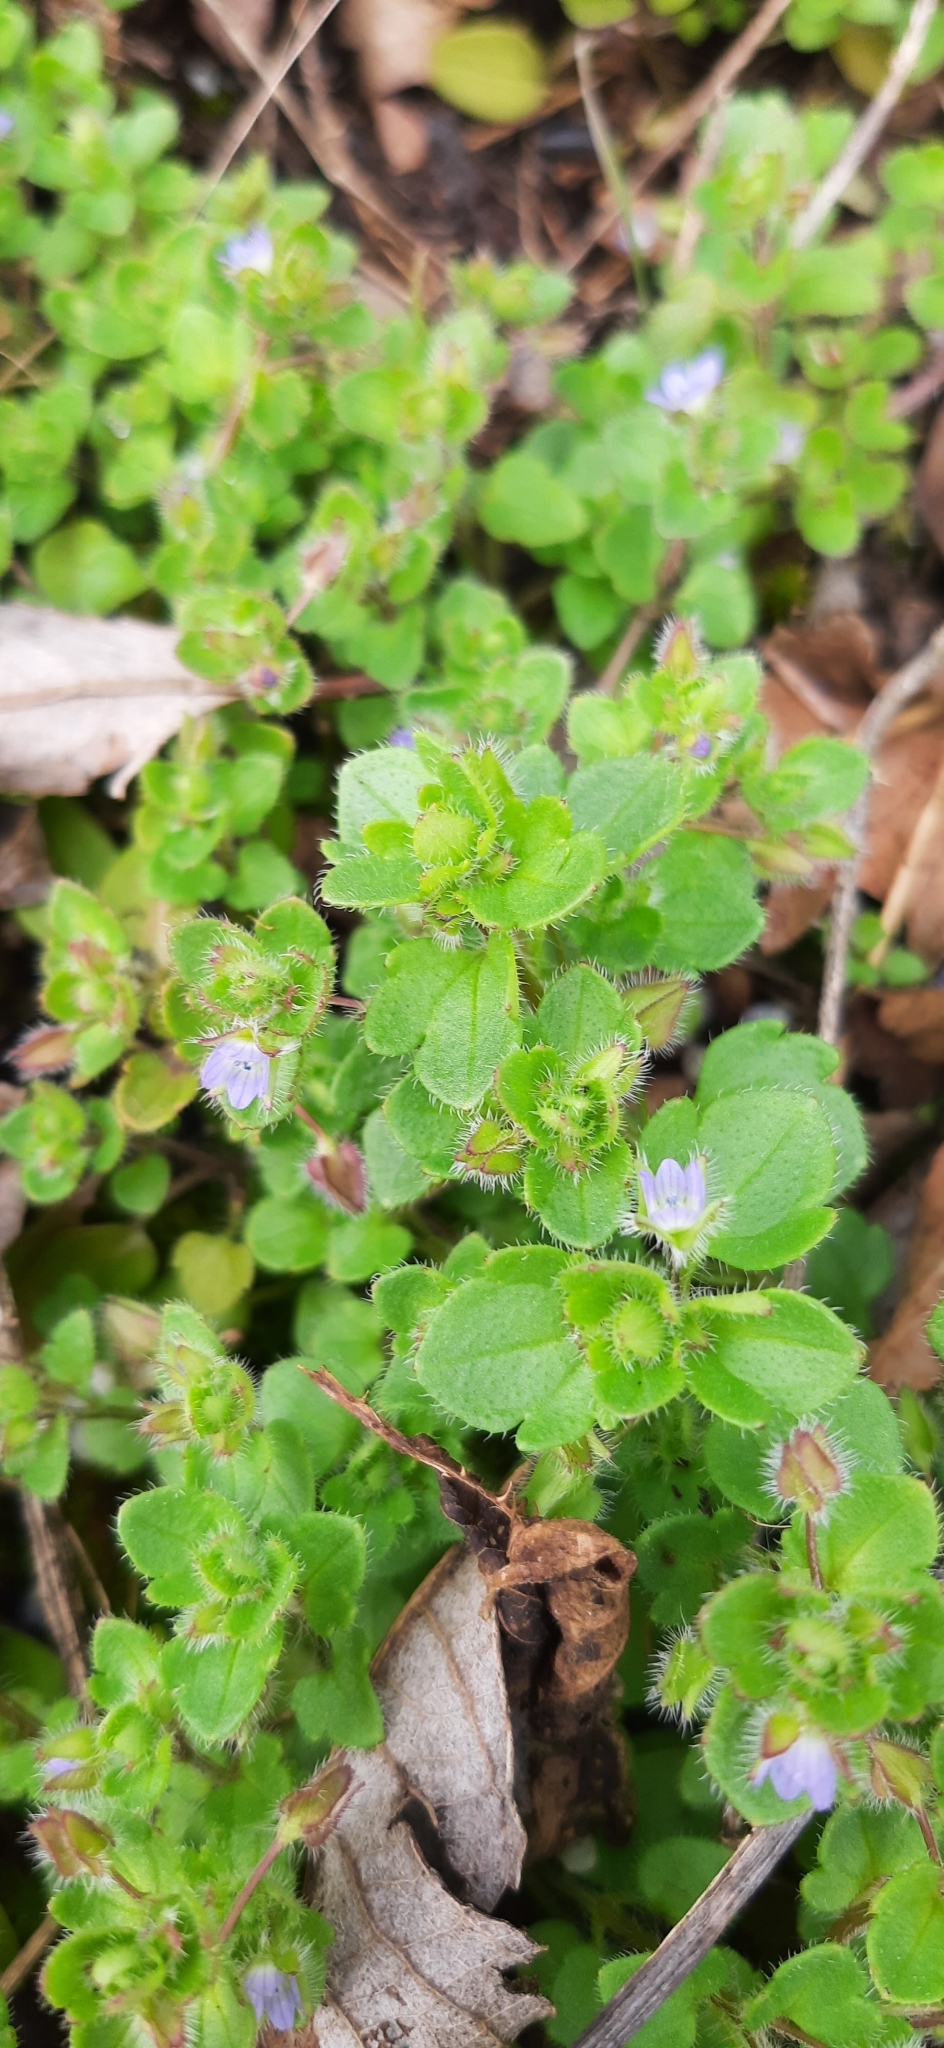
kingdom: Plantae
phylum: Tracheophyta
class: Magnoliopsida
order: Lamiales
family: Plantaginaceae
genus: Veronica
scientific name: Veronica sublobata
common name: False ivy-leaved speedwell
